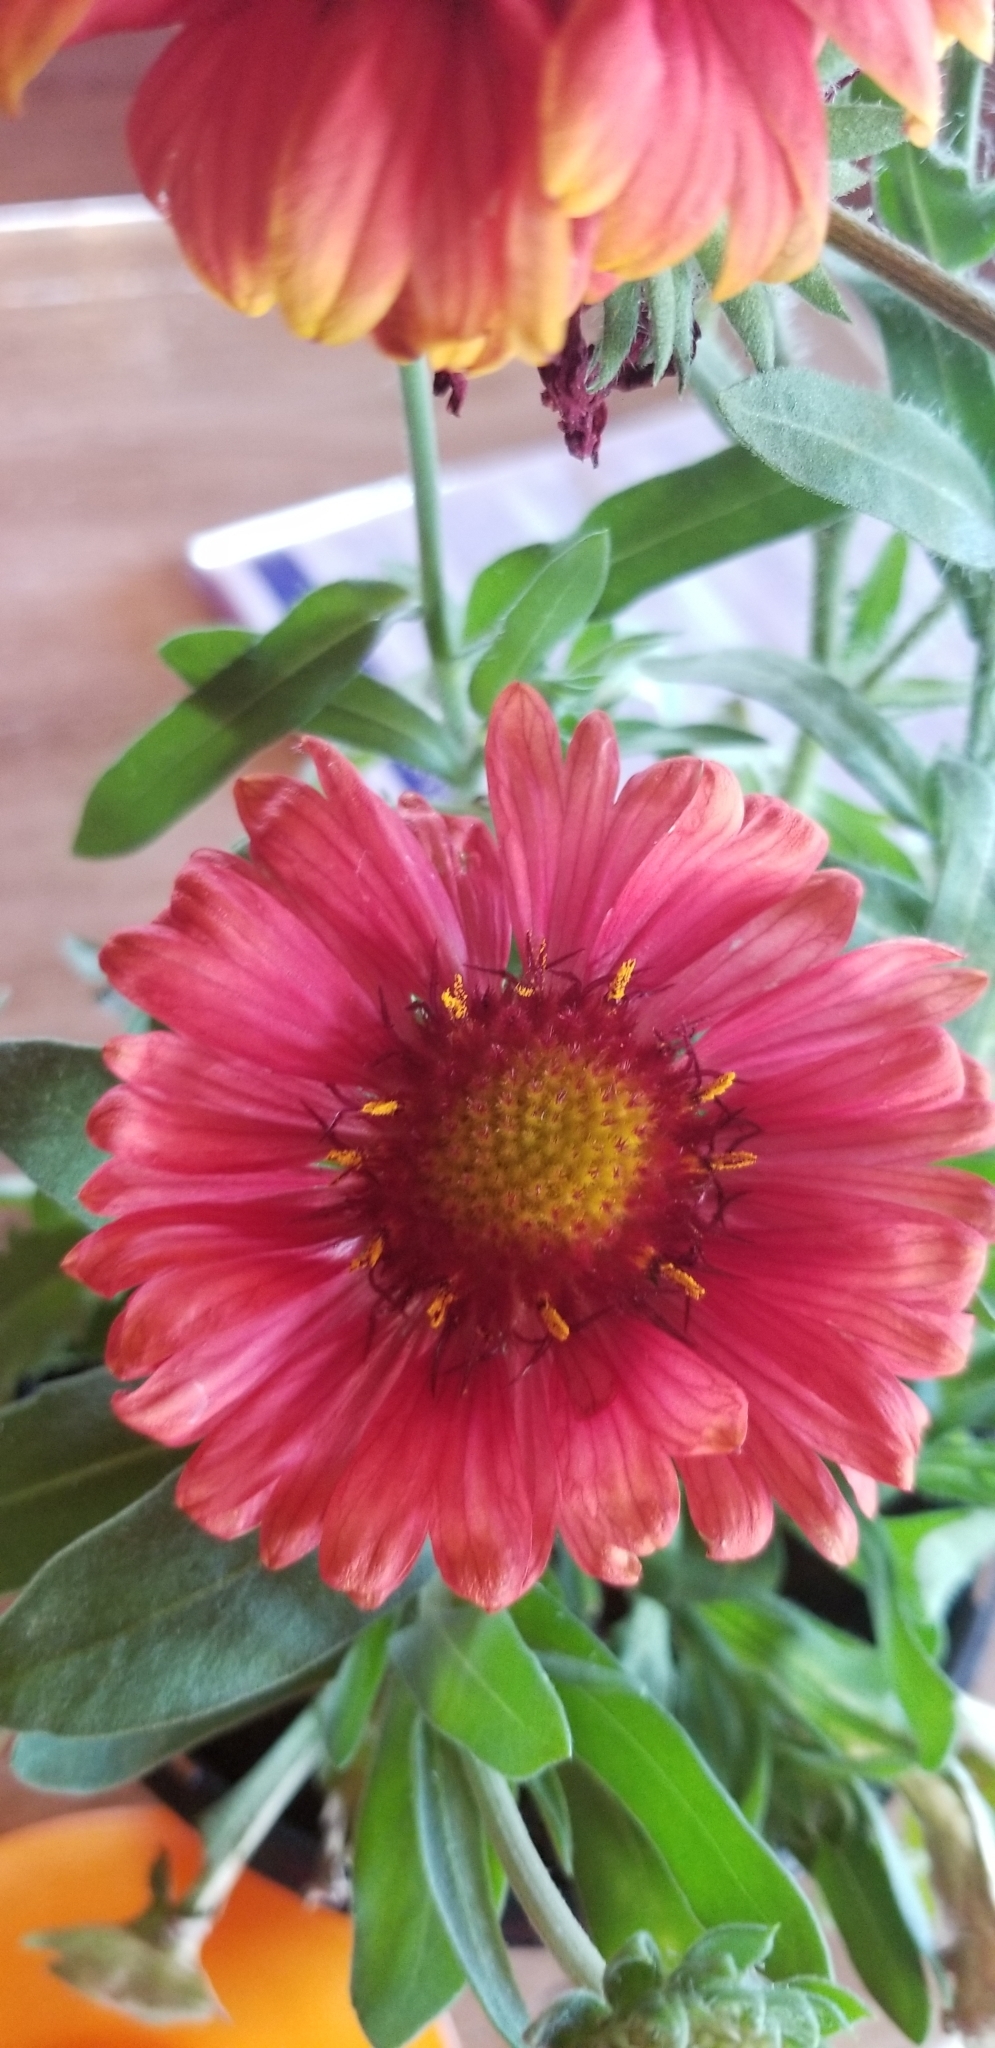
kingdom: Plantae
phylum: Tracheophyta
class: Magnoliopsida
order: Asterales
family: Asteraceae
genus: Gaillardia
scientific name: Gaillardia pulchella
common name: Firewheel
